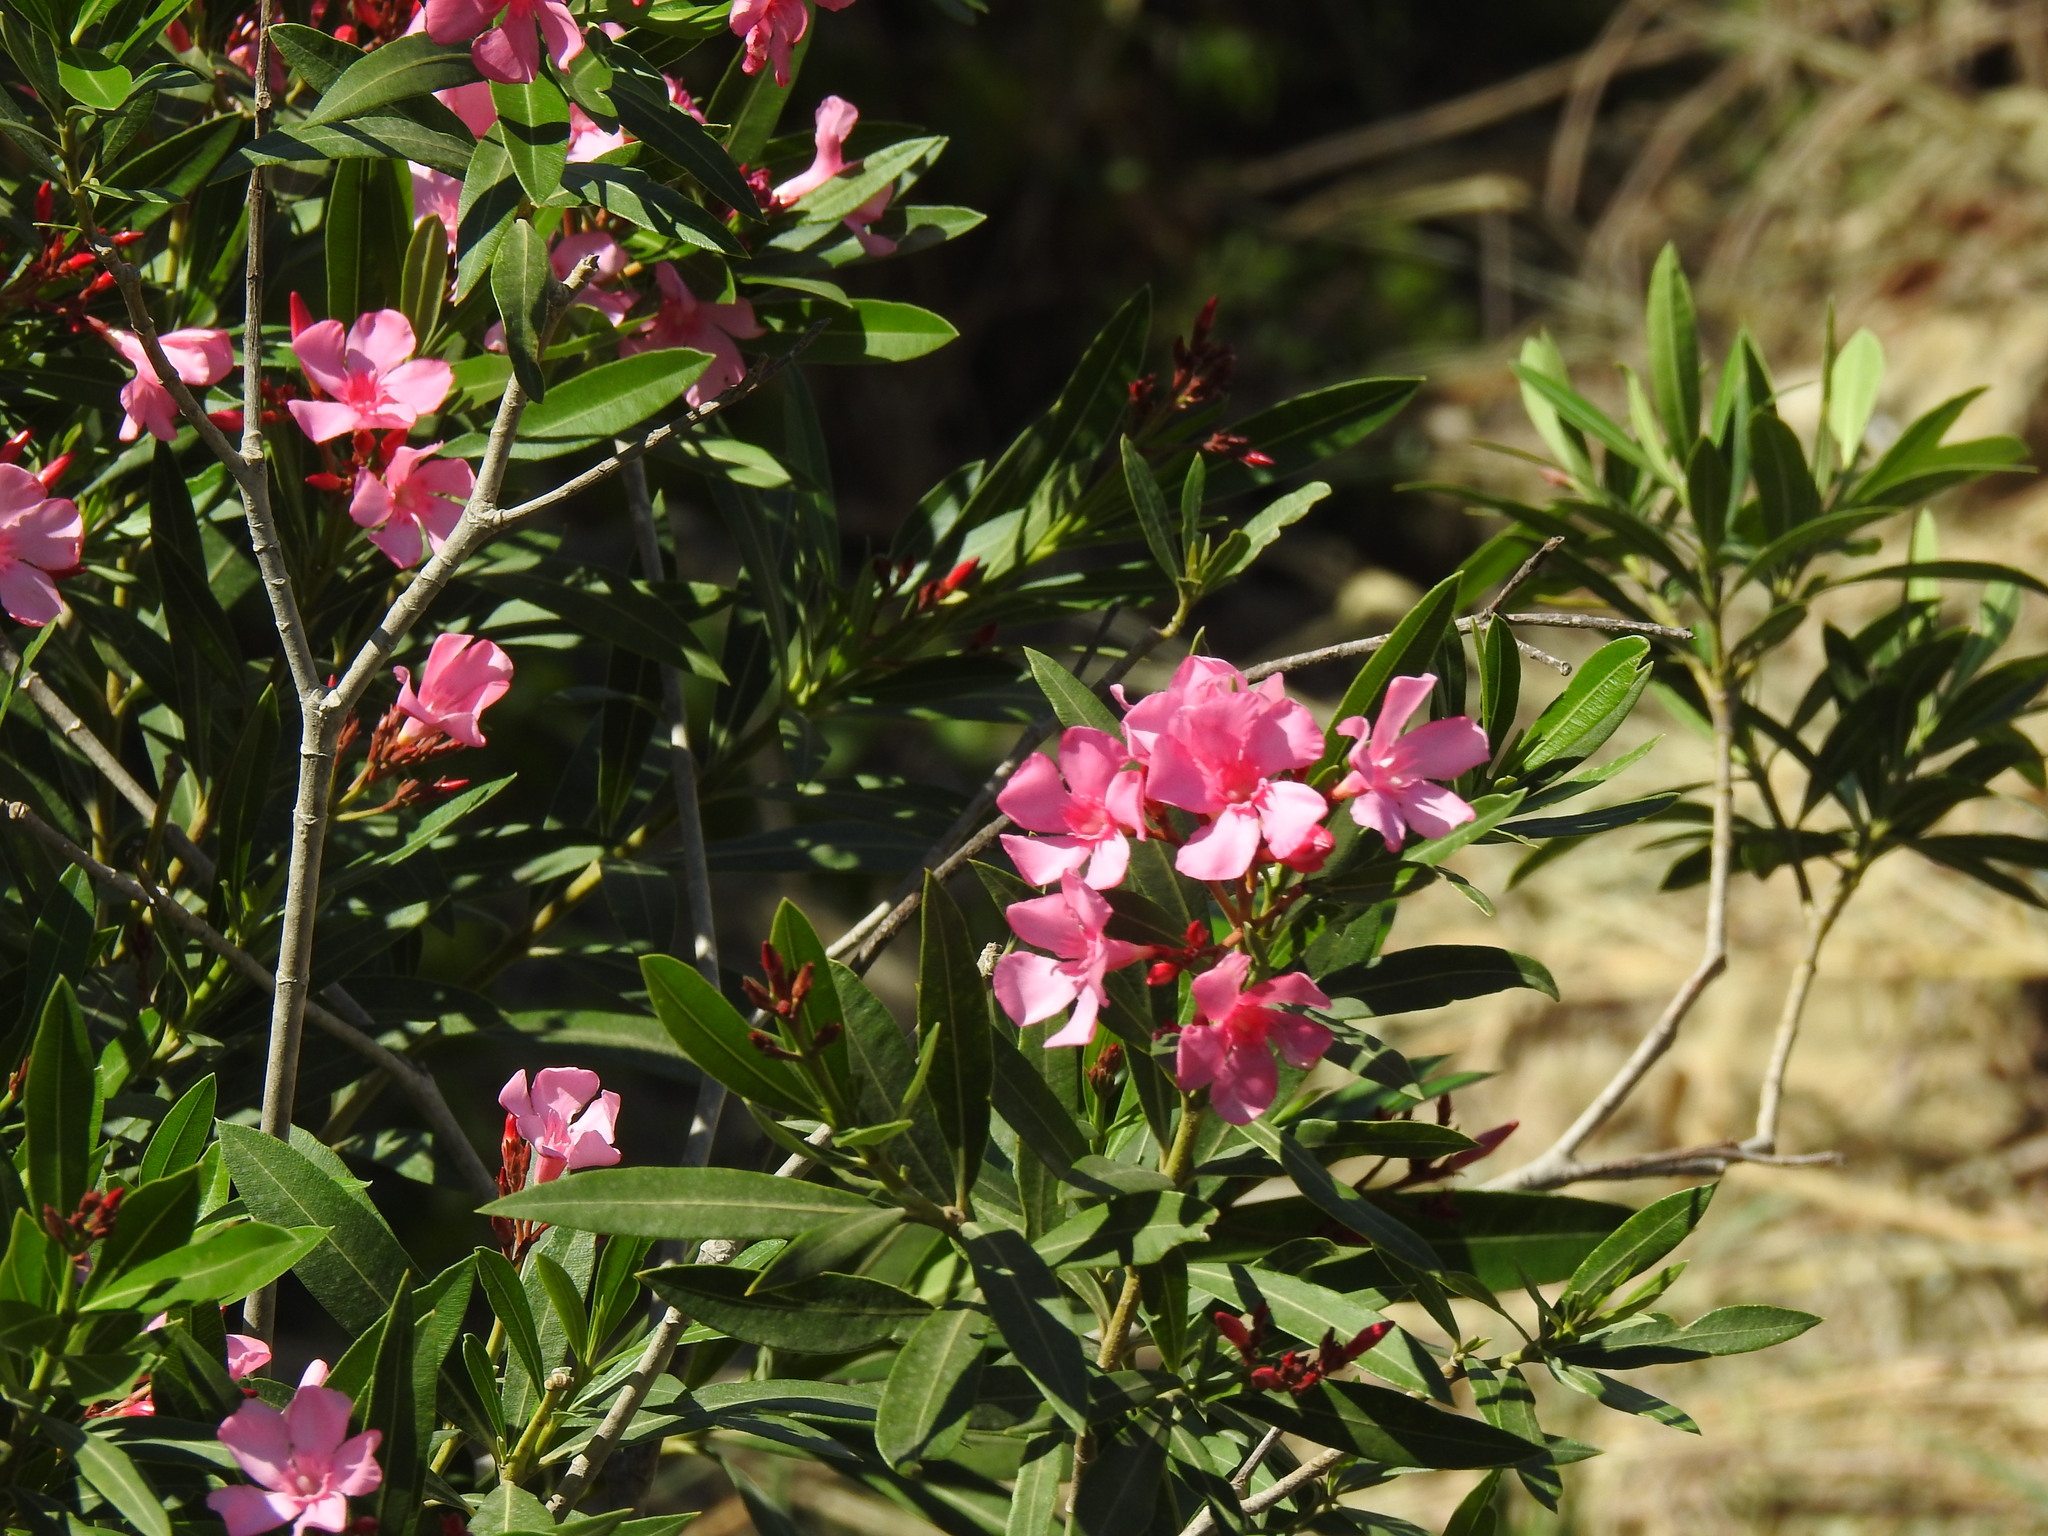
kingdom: Plantae
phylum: Tracheophyta
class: Magnoliopsida
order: Gentianales
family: Apocynaceae
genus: Nerium
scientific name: Nerium oleander
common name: Oleander
